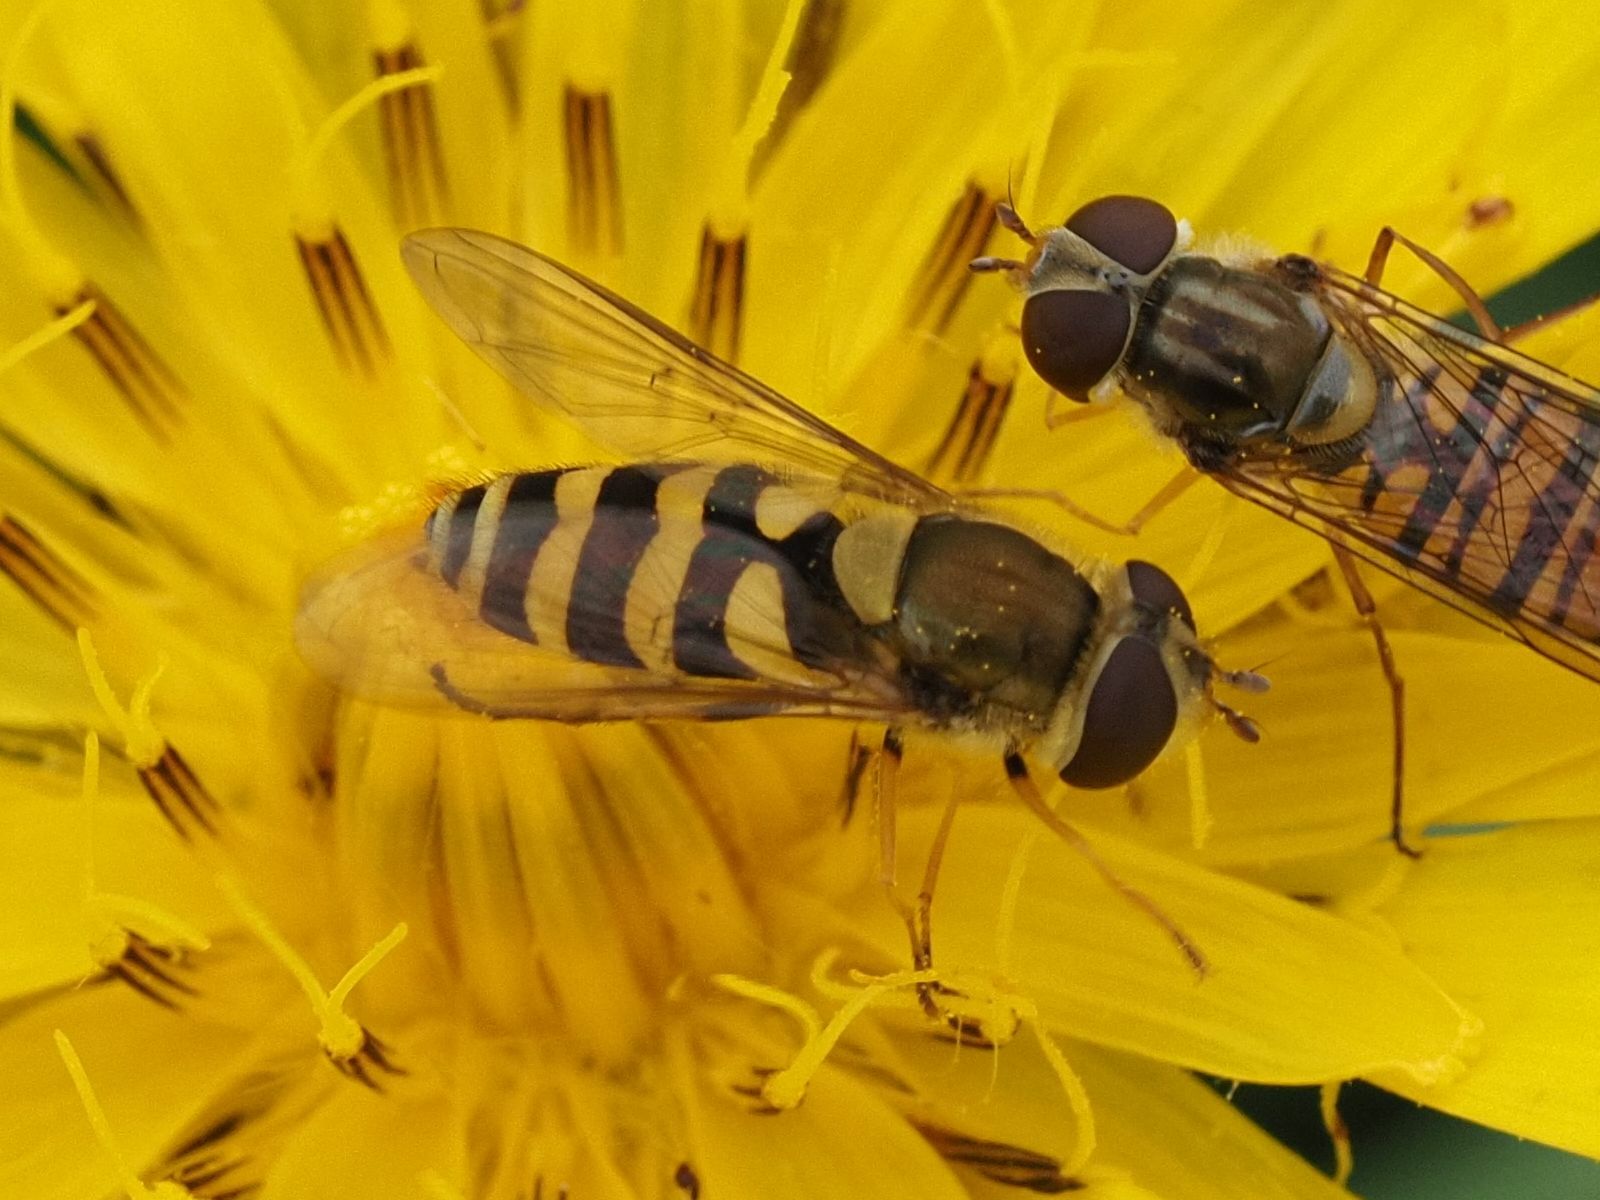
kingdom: Animalia
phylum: Arthropoda
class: Insecta
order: Diptera
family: Syrphidae
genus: Syrphus
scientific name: Syrphus
